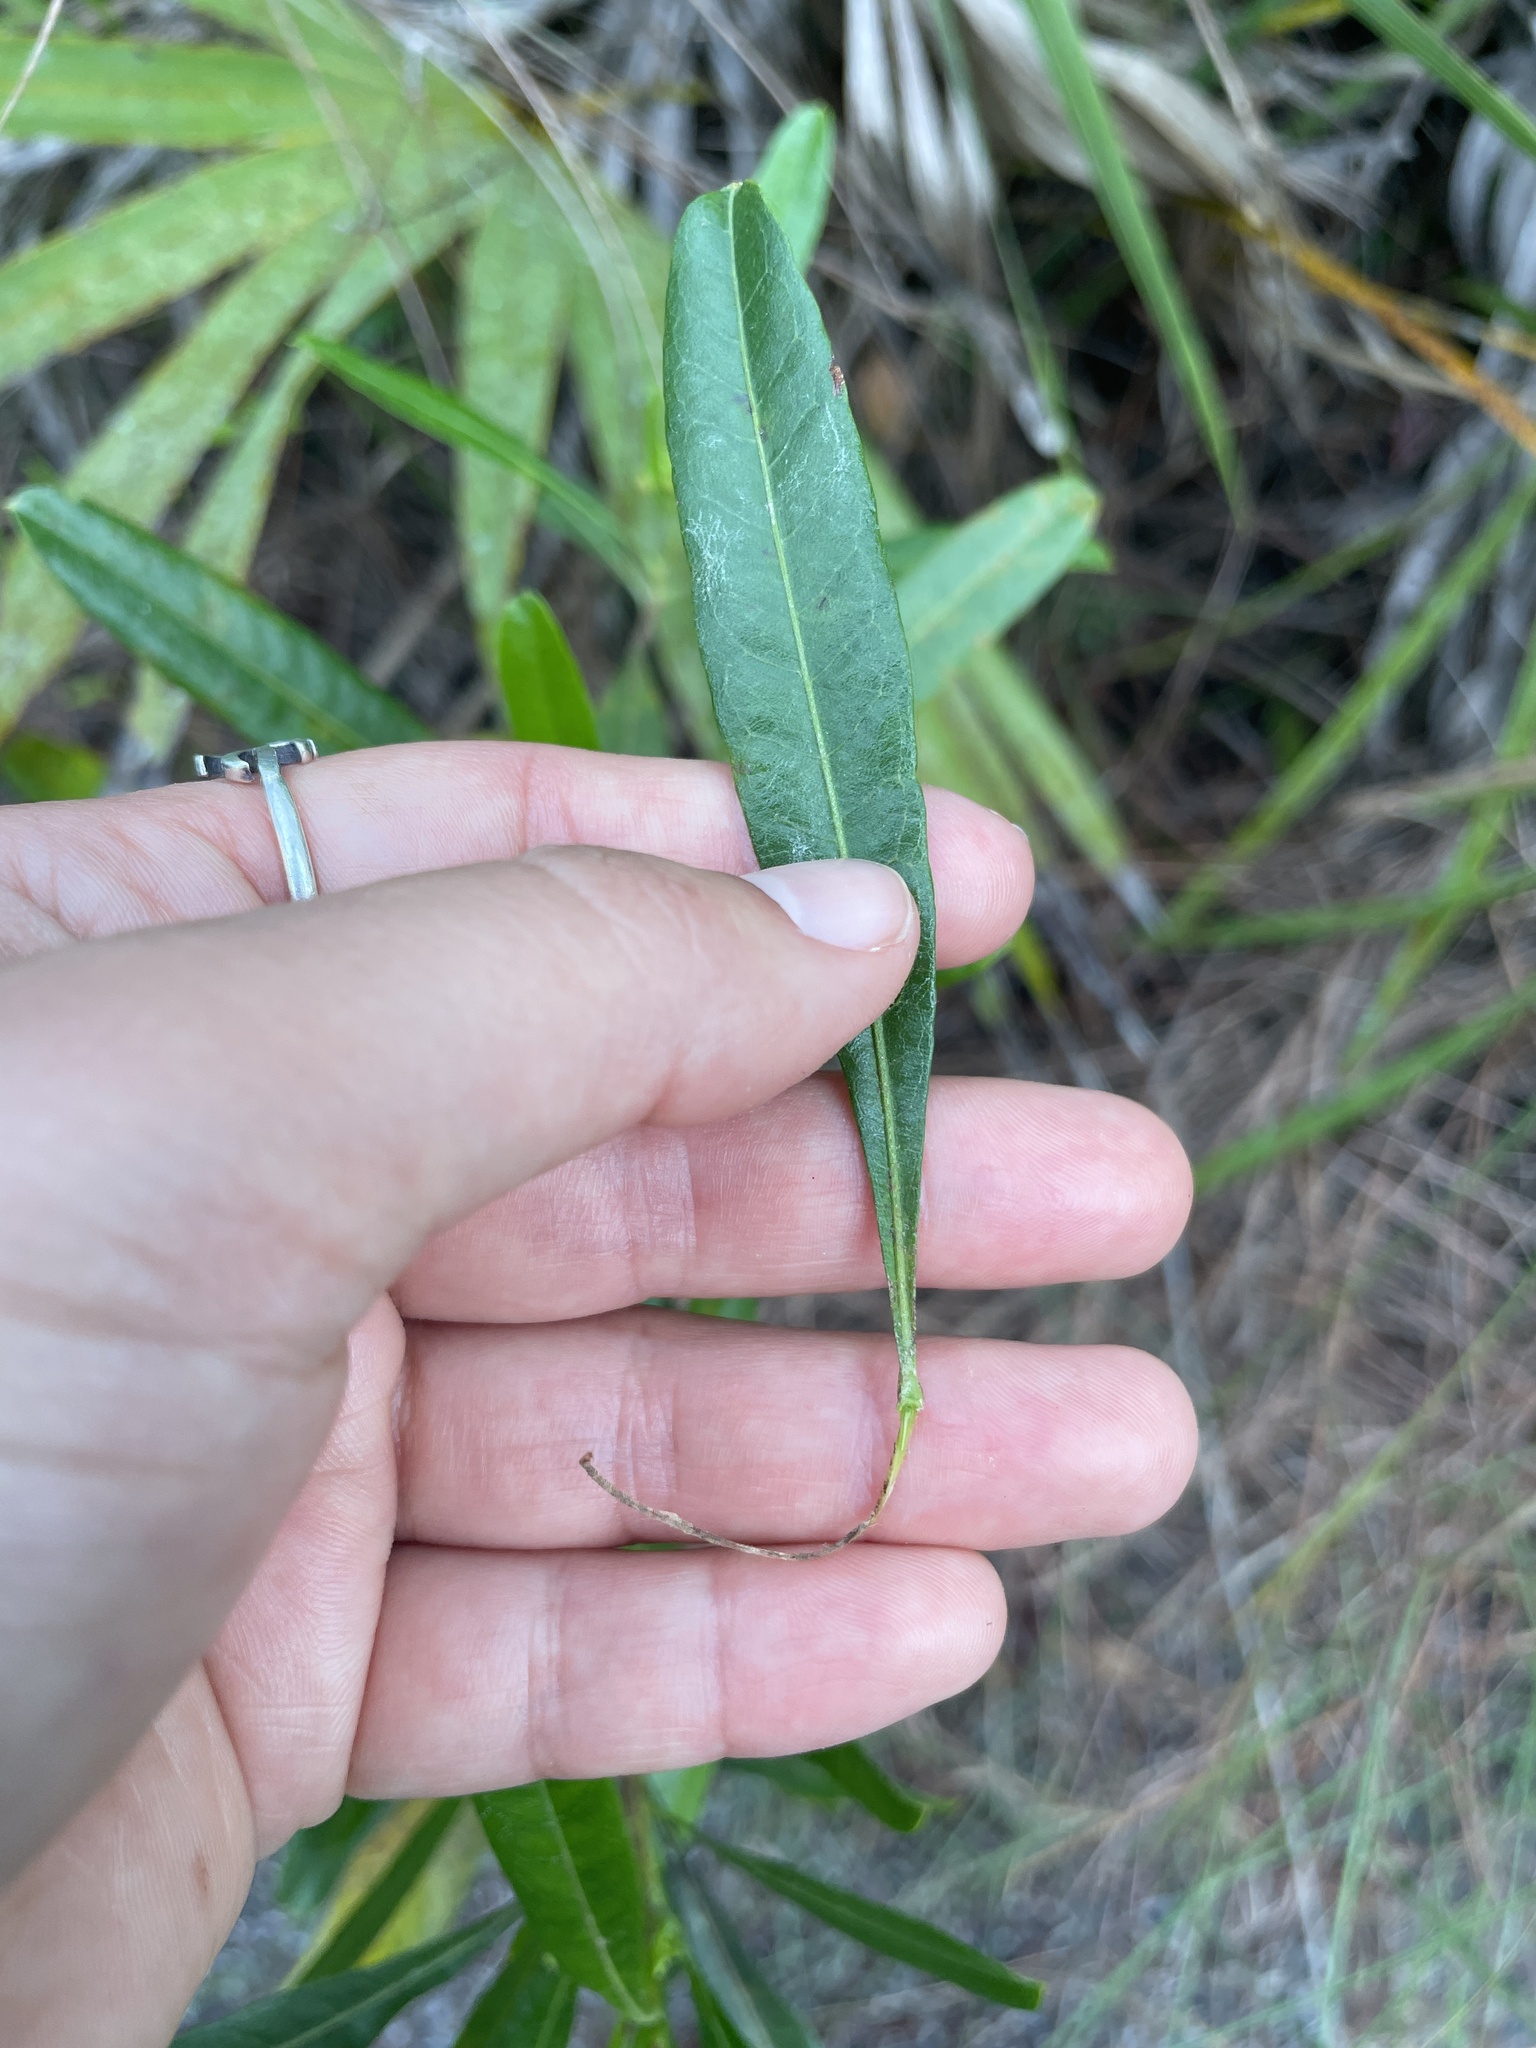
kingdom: Plantae
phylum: Tracheophyta
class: Magnoliopsida
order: Sapindales
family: Sapindaceae
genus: Dodonaea
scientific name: Dodonaea viscosa
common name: Hopbush
